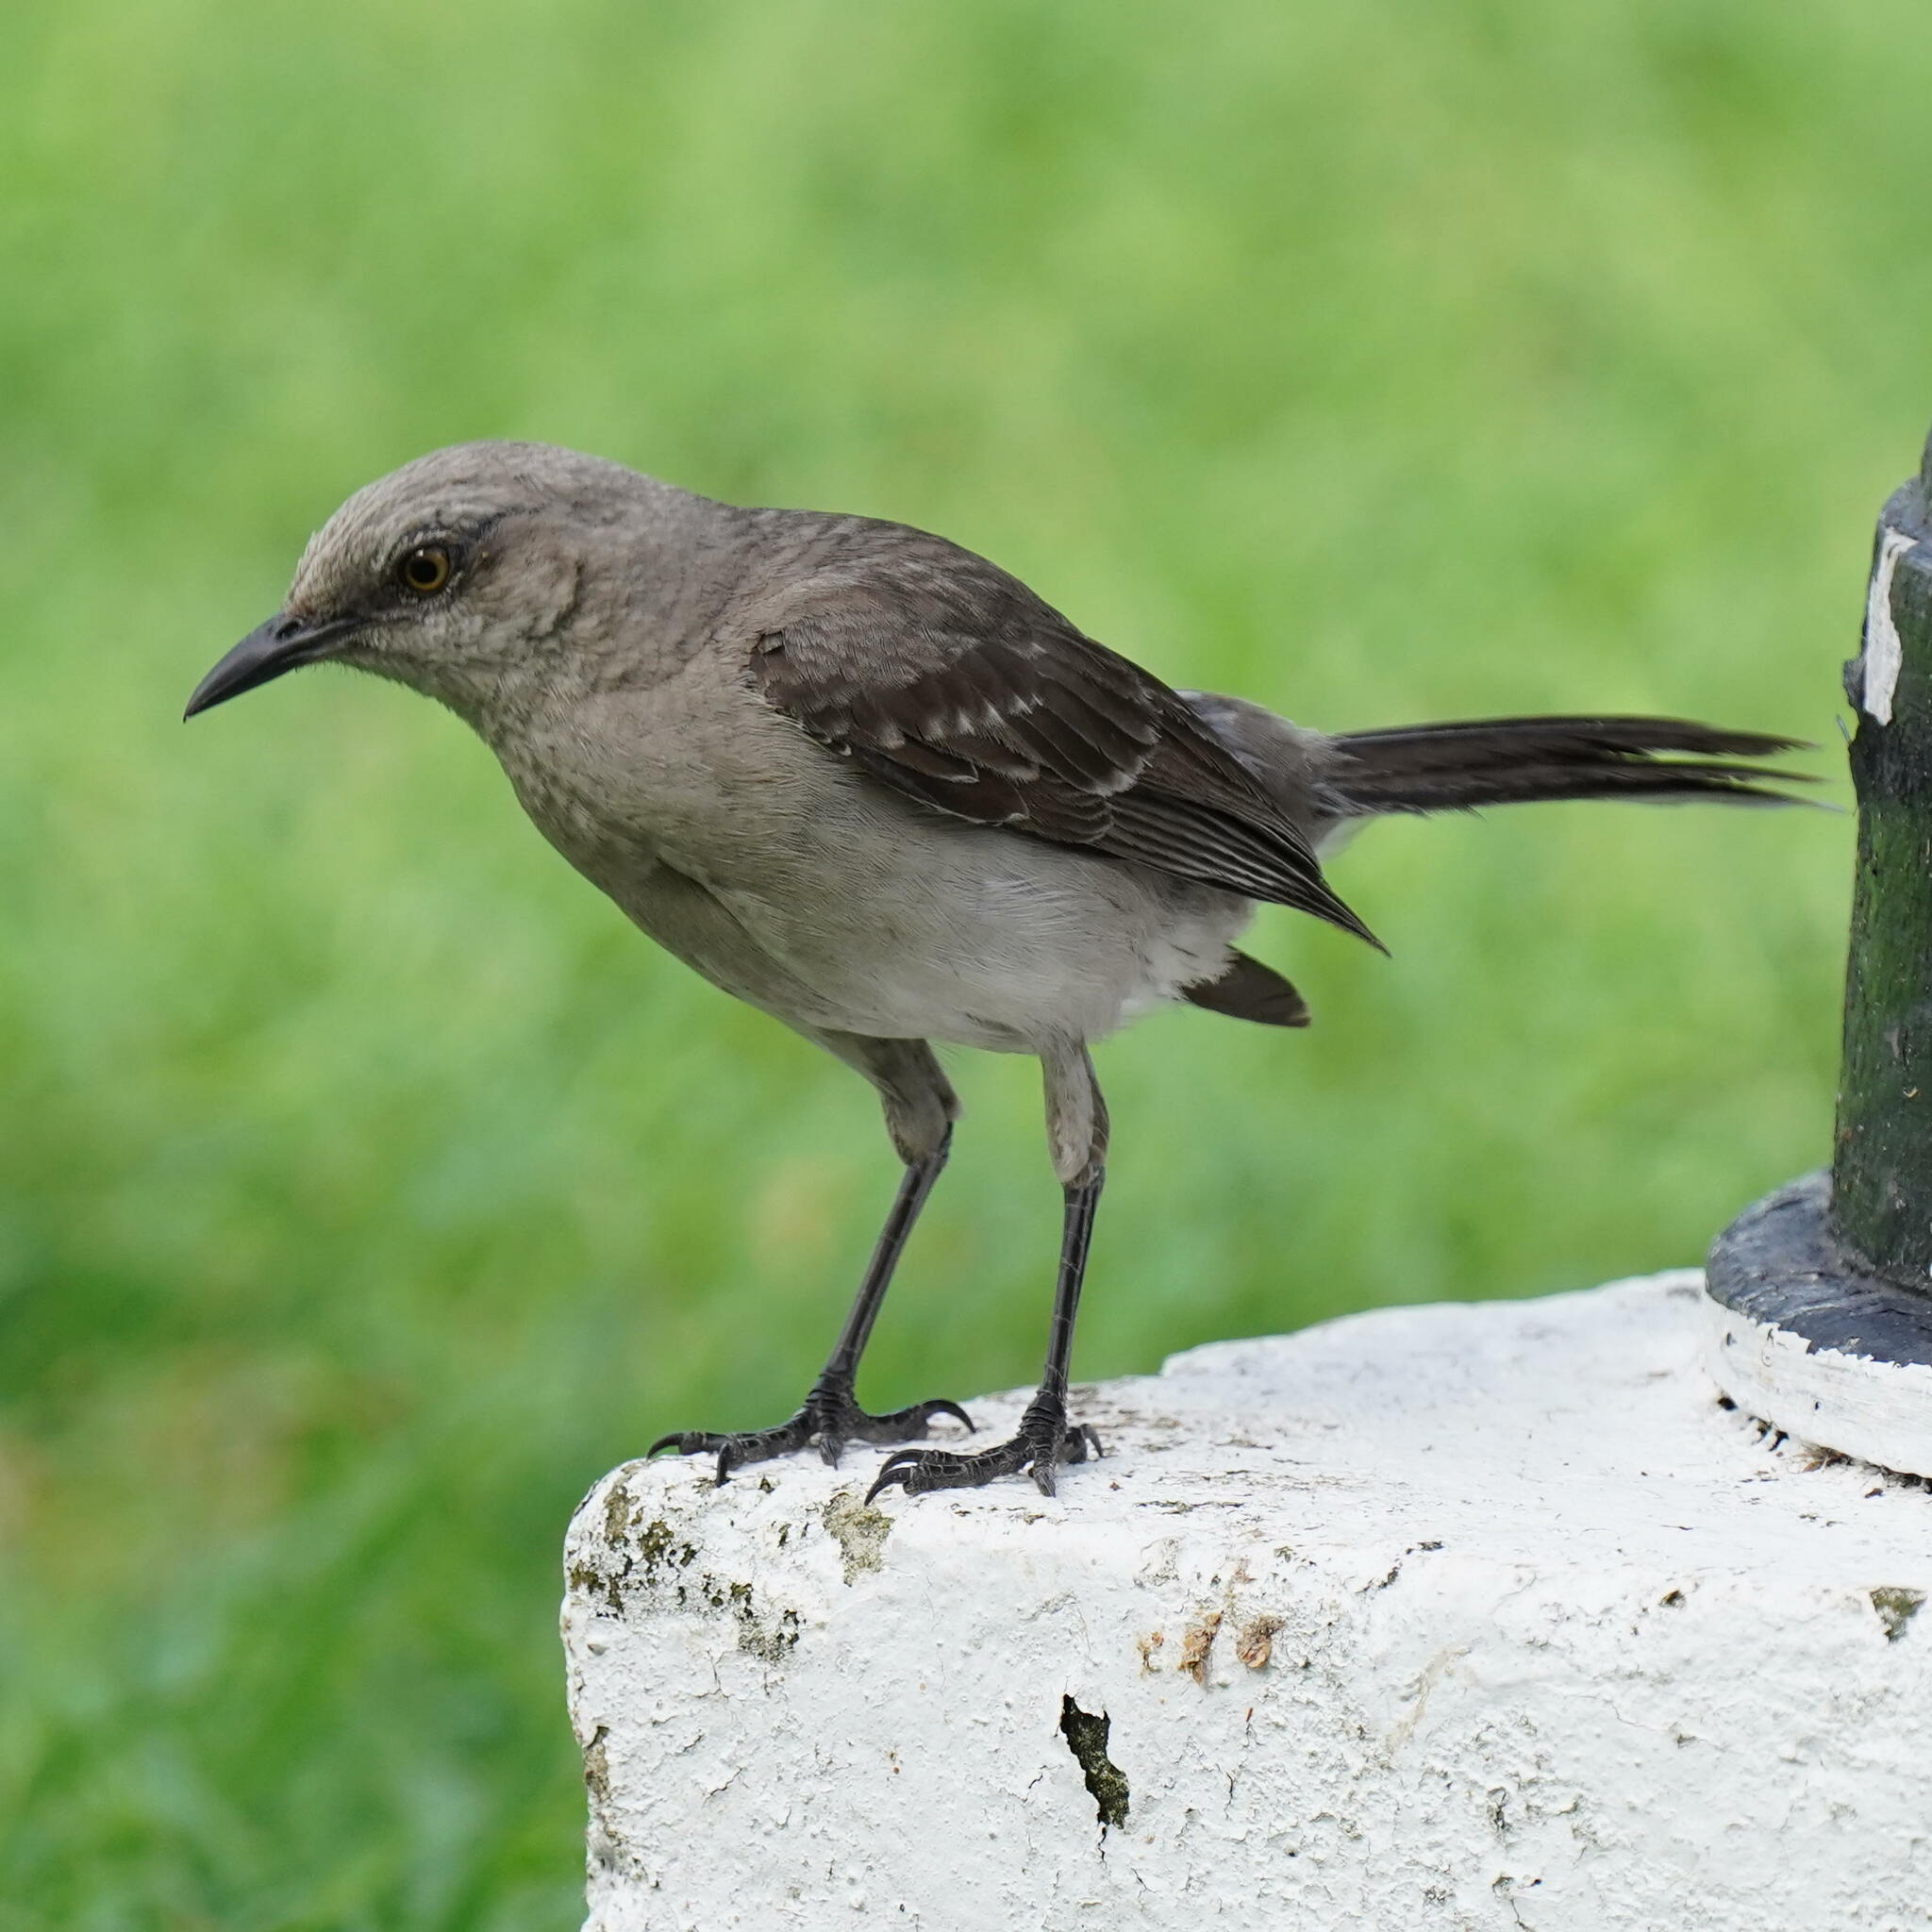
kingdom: Animalia
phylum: Chordata
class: Aves
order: Passeriformes
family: Mimidae
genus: Mimus
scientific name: Mimus gilvus
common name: Tropical mockingbird
